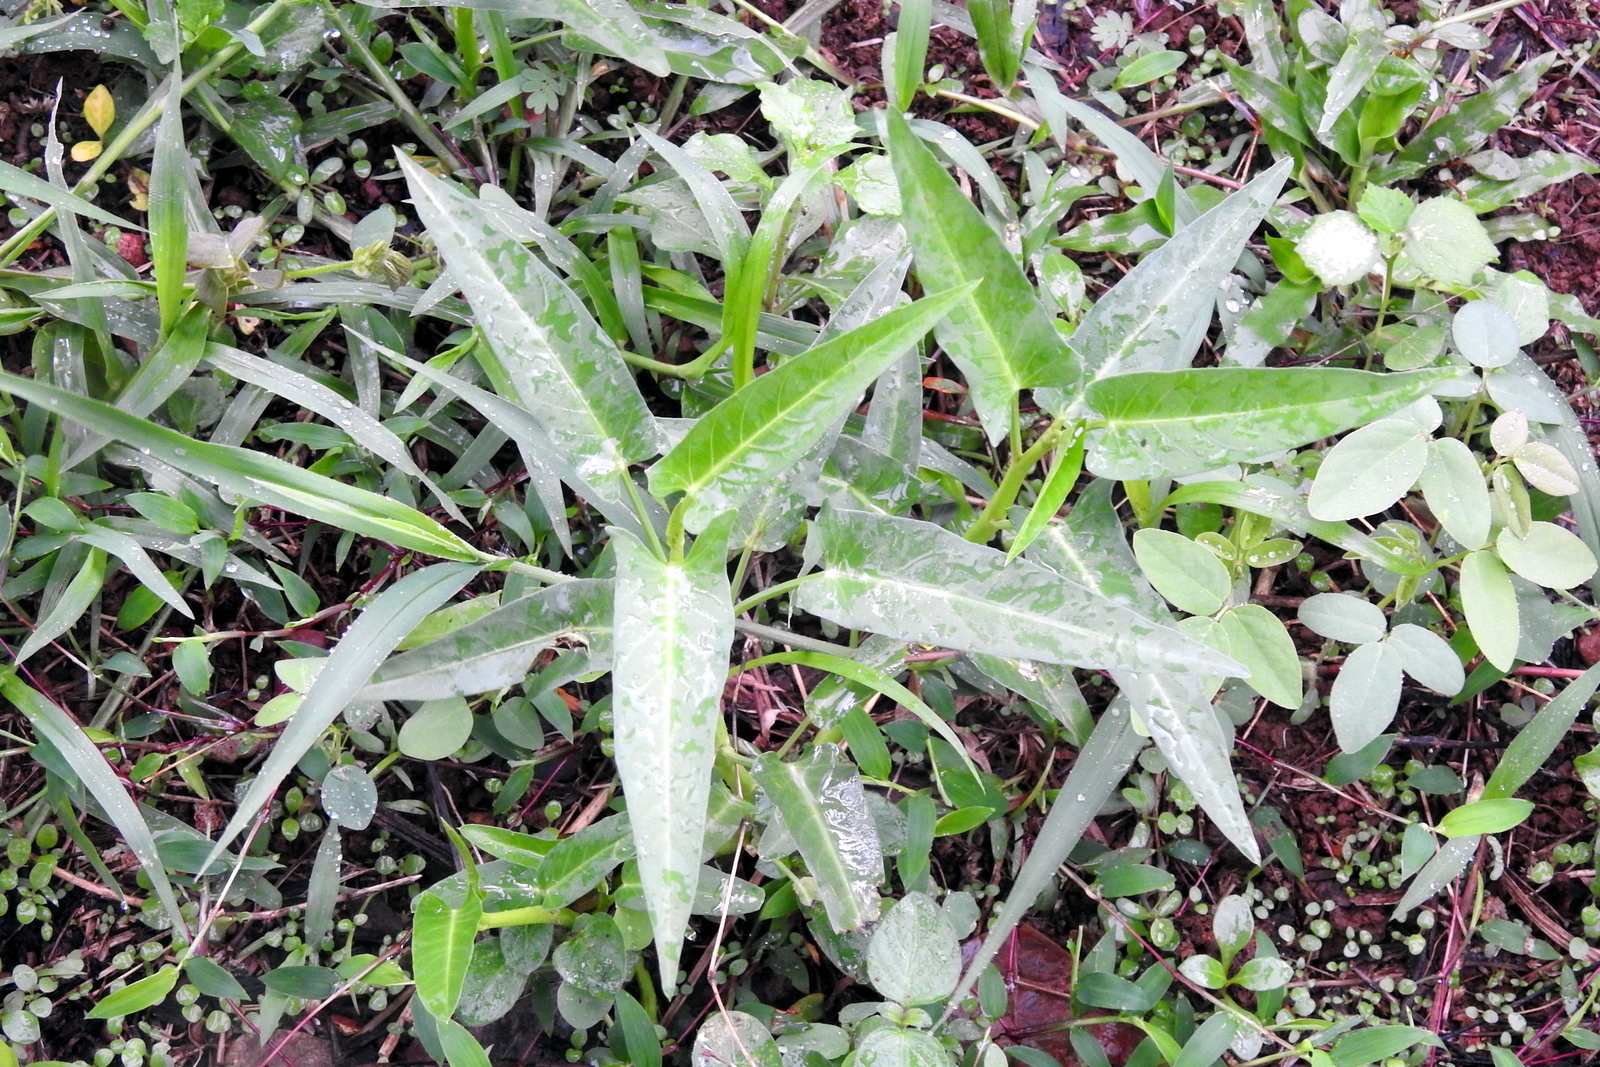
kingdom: Plantae
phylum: Tracheophyta
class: Magnoliopsida
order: Solanales
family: Convolvulaceae
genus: Ipomoea
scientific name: Ipomoea aquatica
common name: Swamp morning-glory
